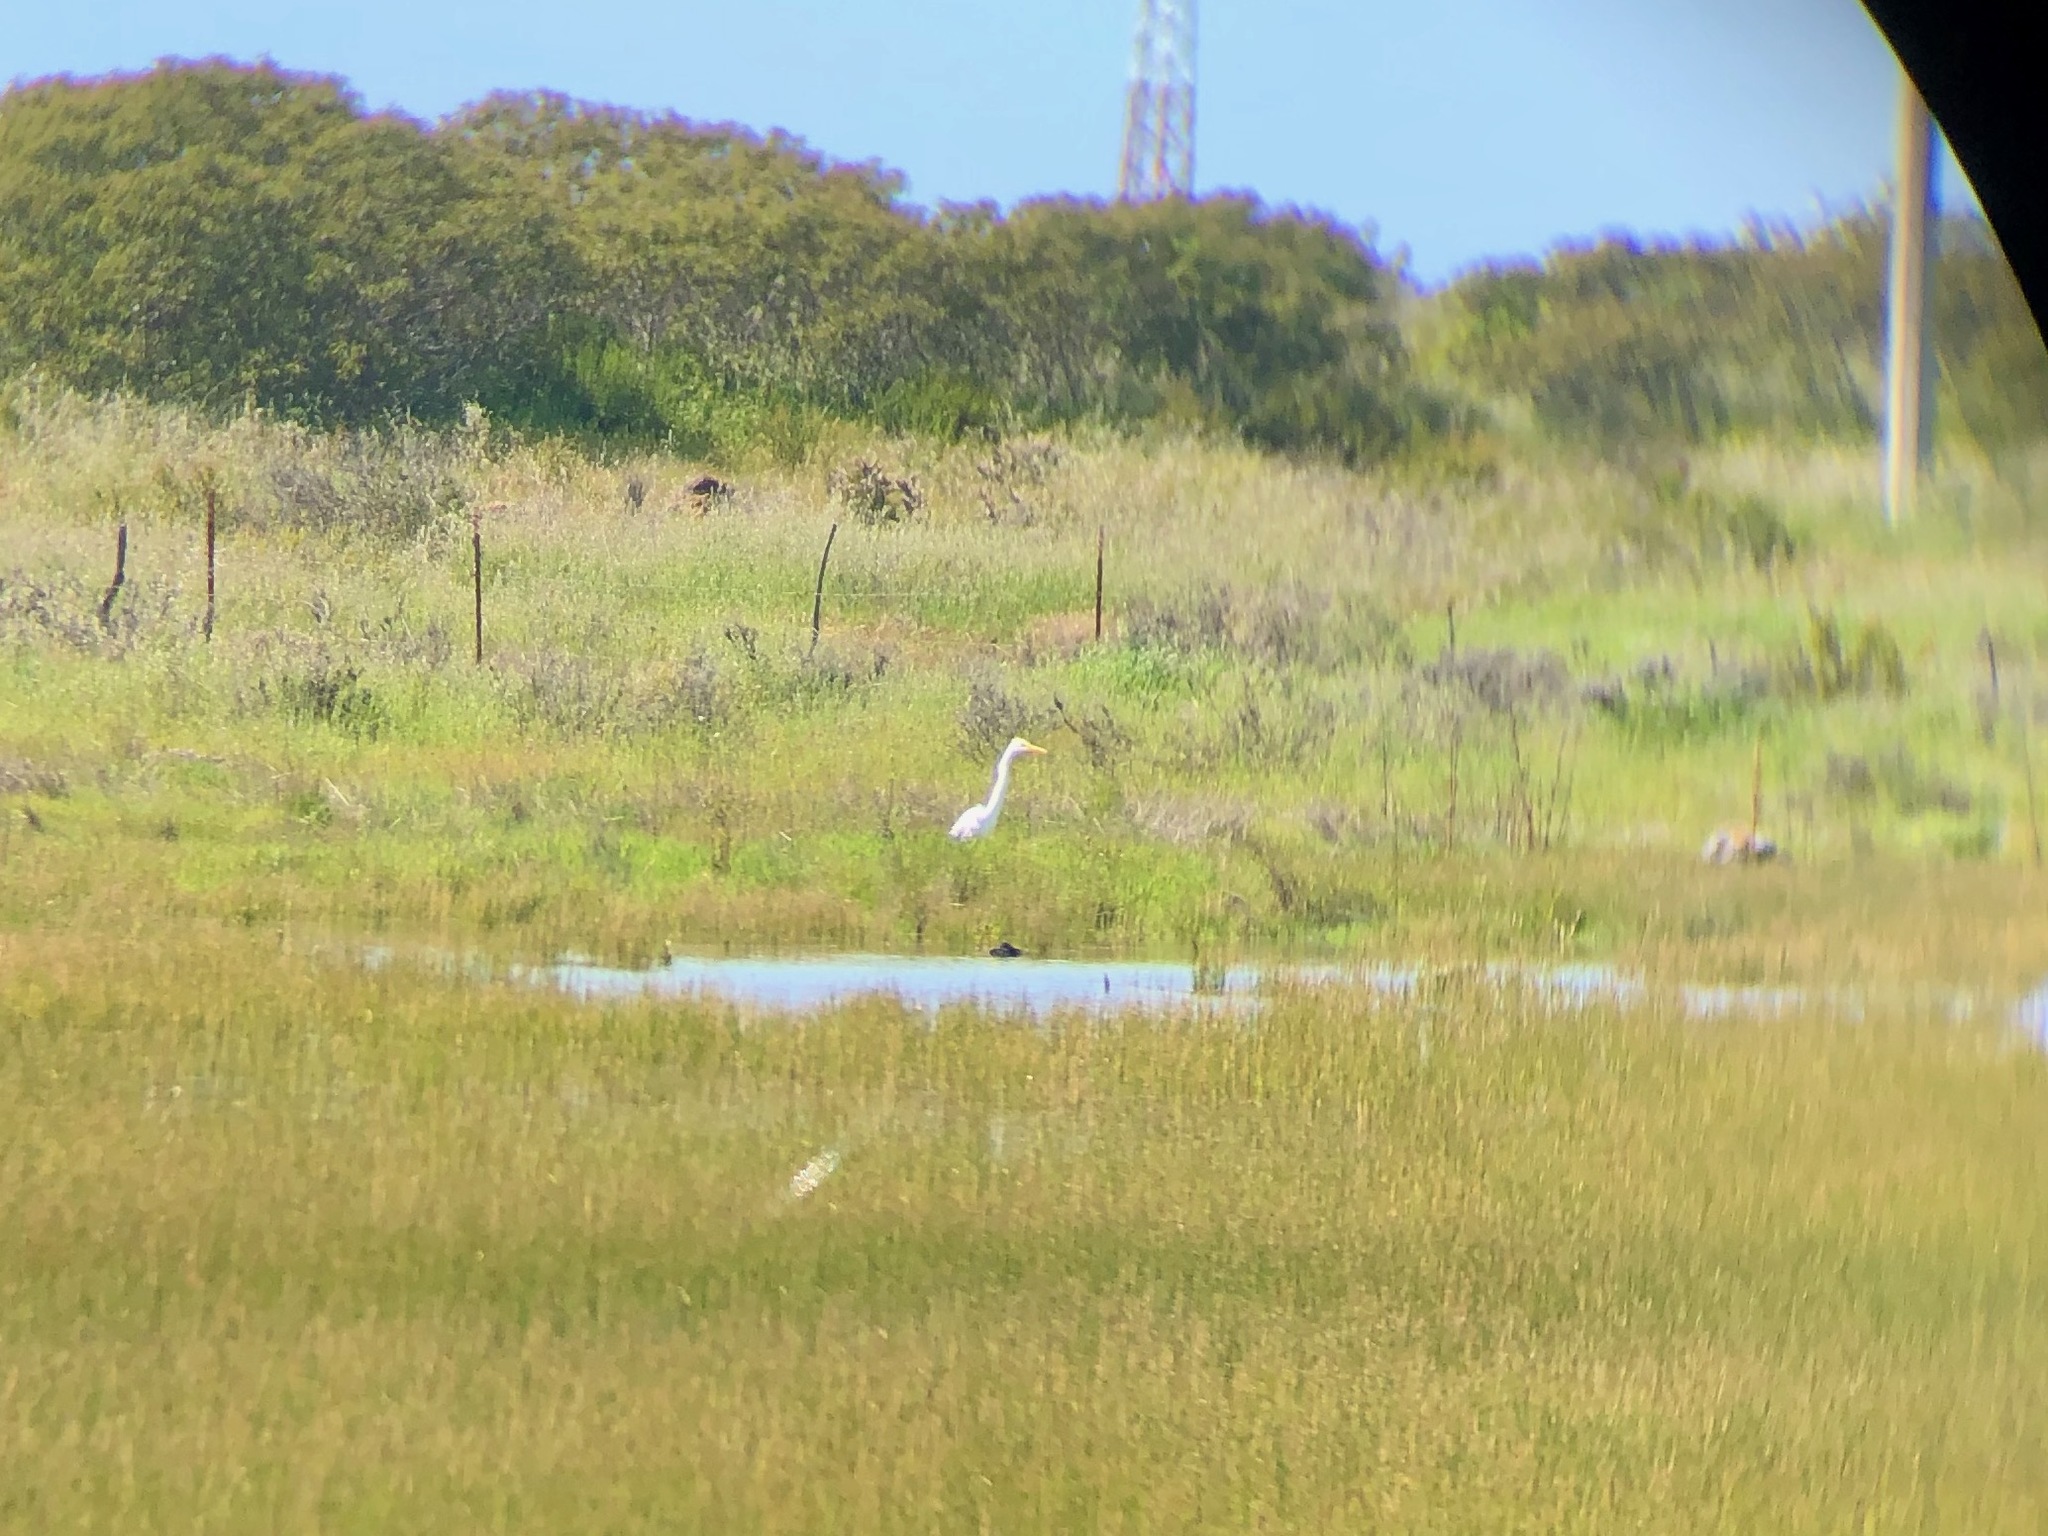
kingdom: Animalia
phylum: Chordata
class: Aves
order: Pelecaniformes
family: Ardeidae
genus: Ardea
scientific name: Ardea alba
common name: Great egret
